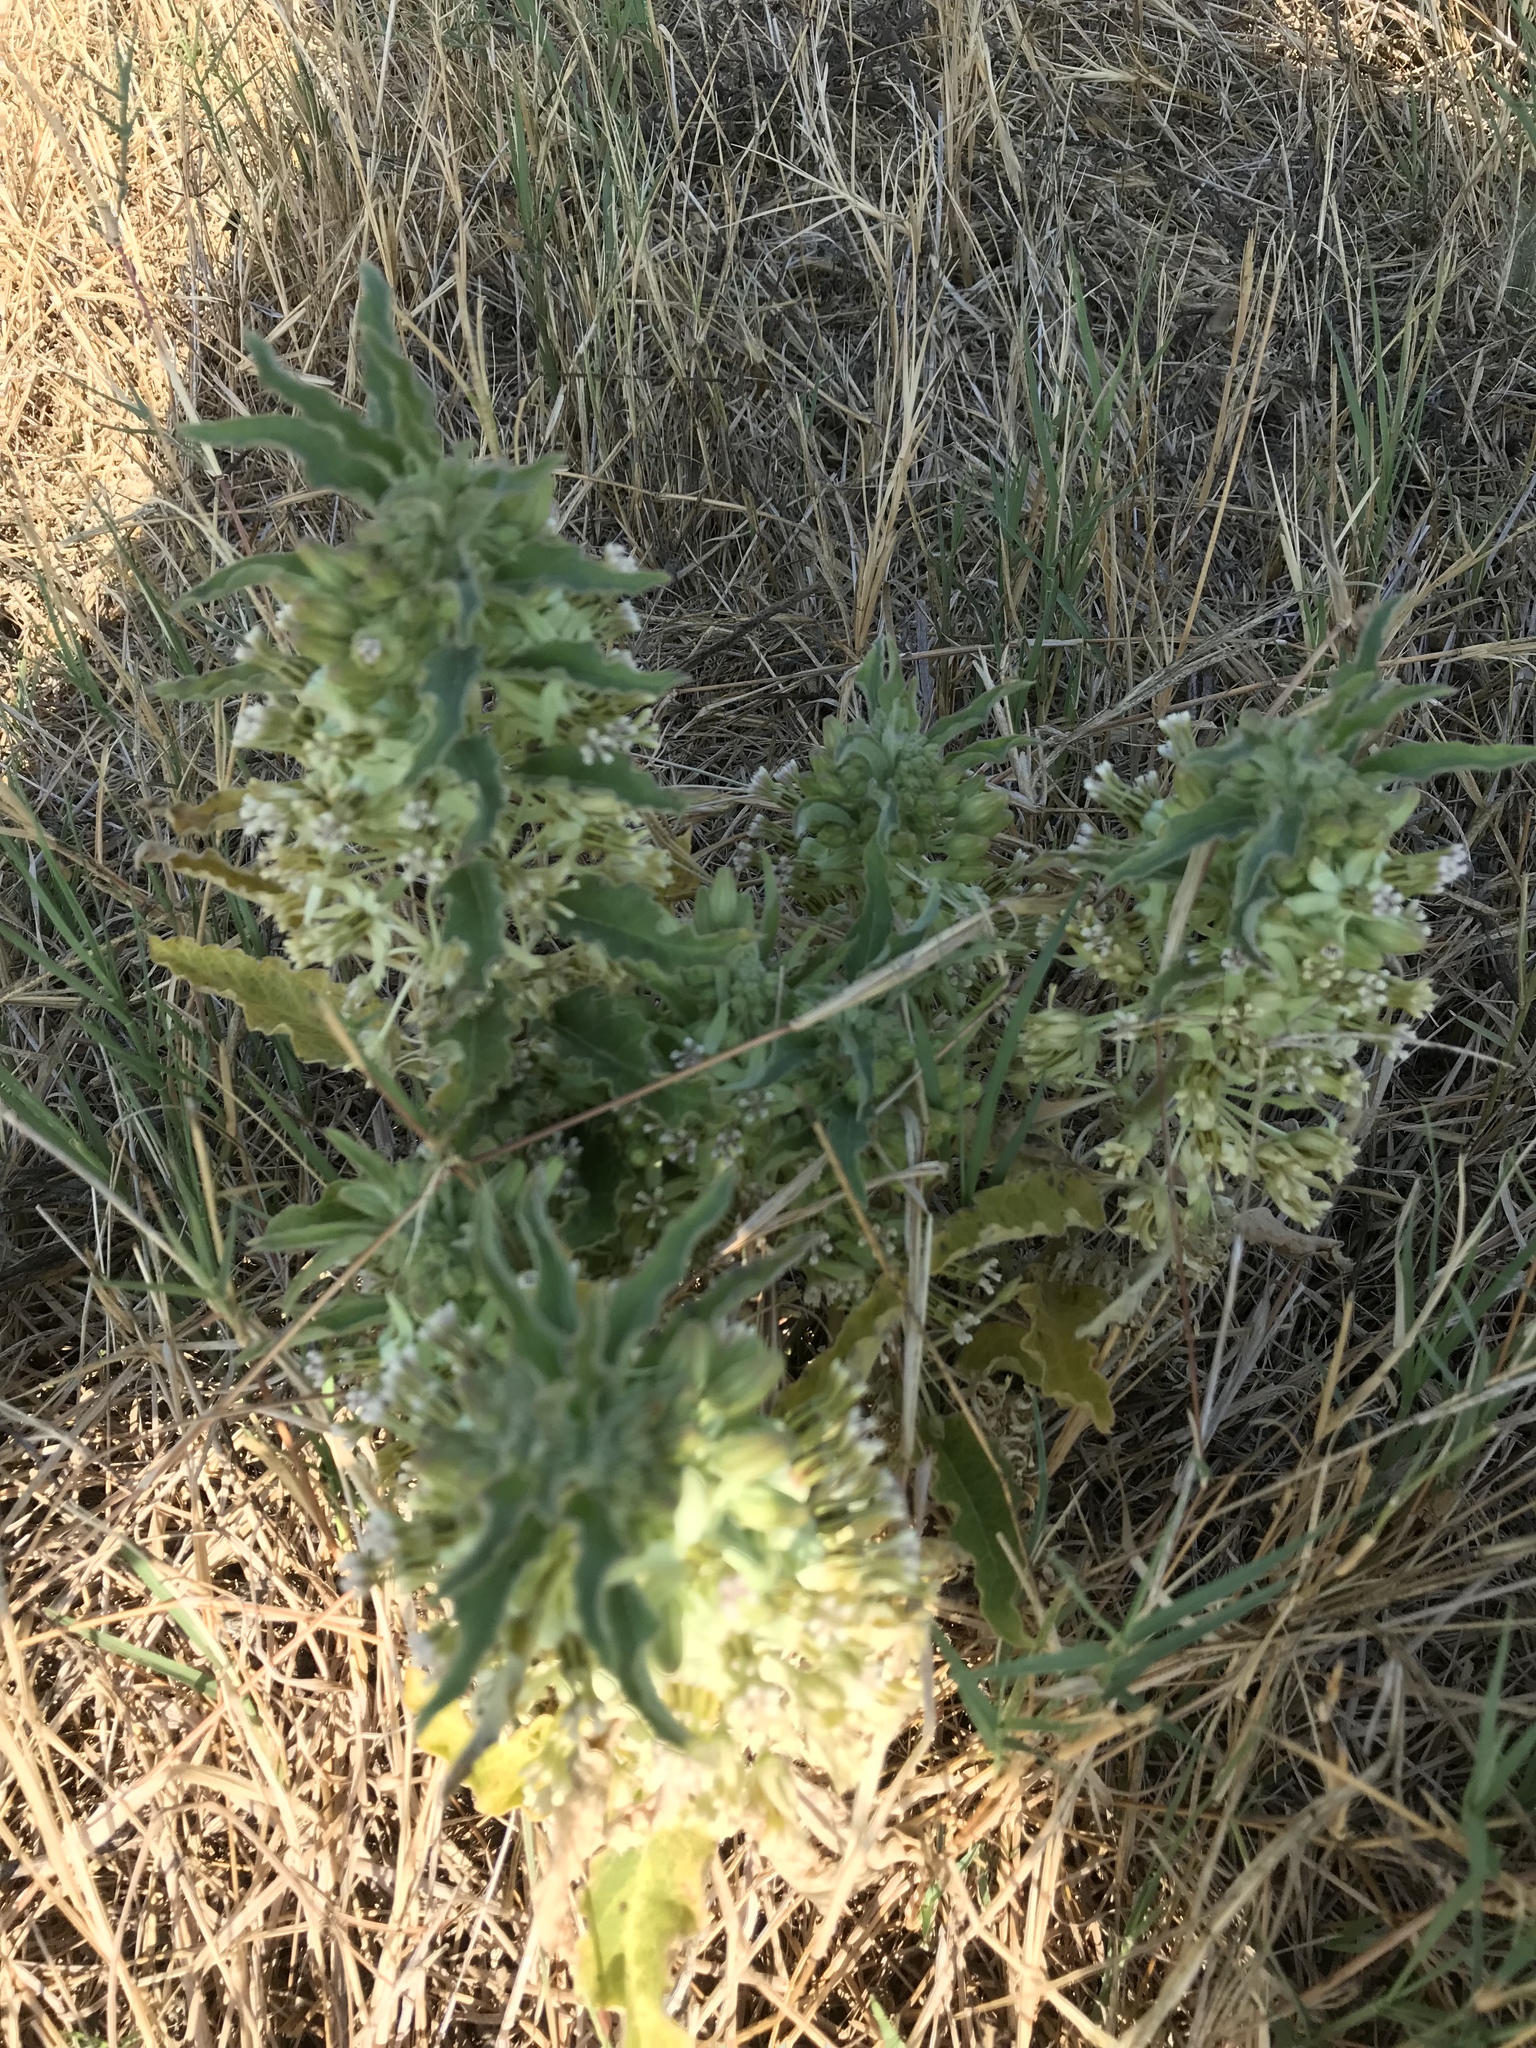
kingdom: Plantae
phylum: Tracheophyta
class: Magnoliopsida
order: Gentianales
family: Apocynaceae
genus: Asclepias
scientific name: Asclepias oenotheroides
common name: Zizotes milkweed
